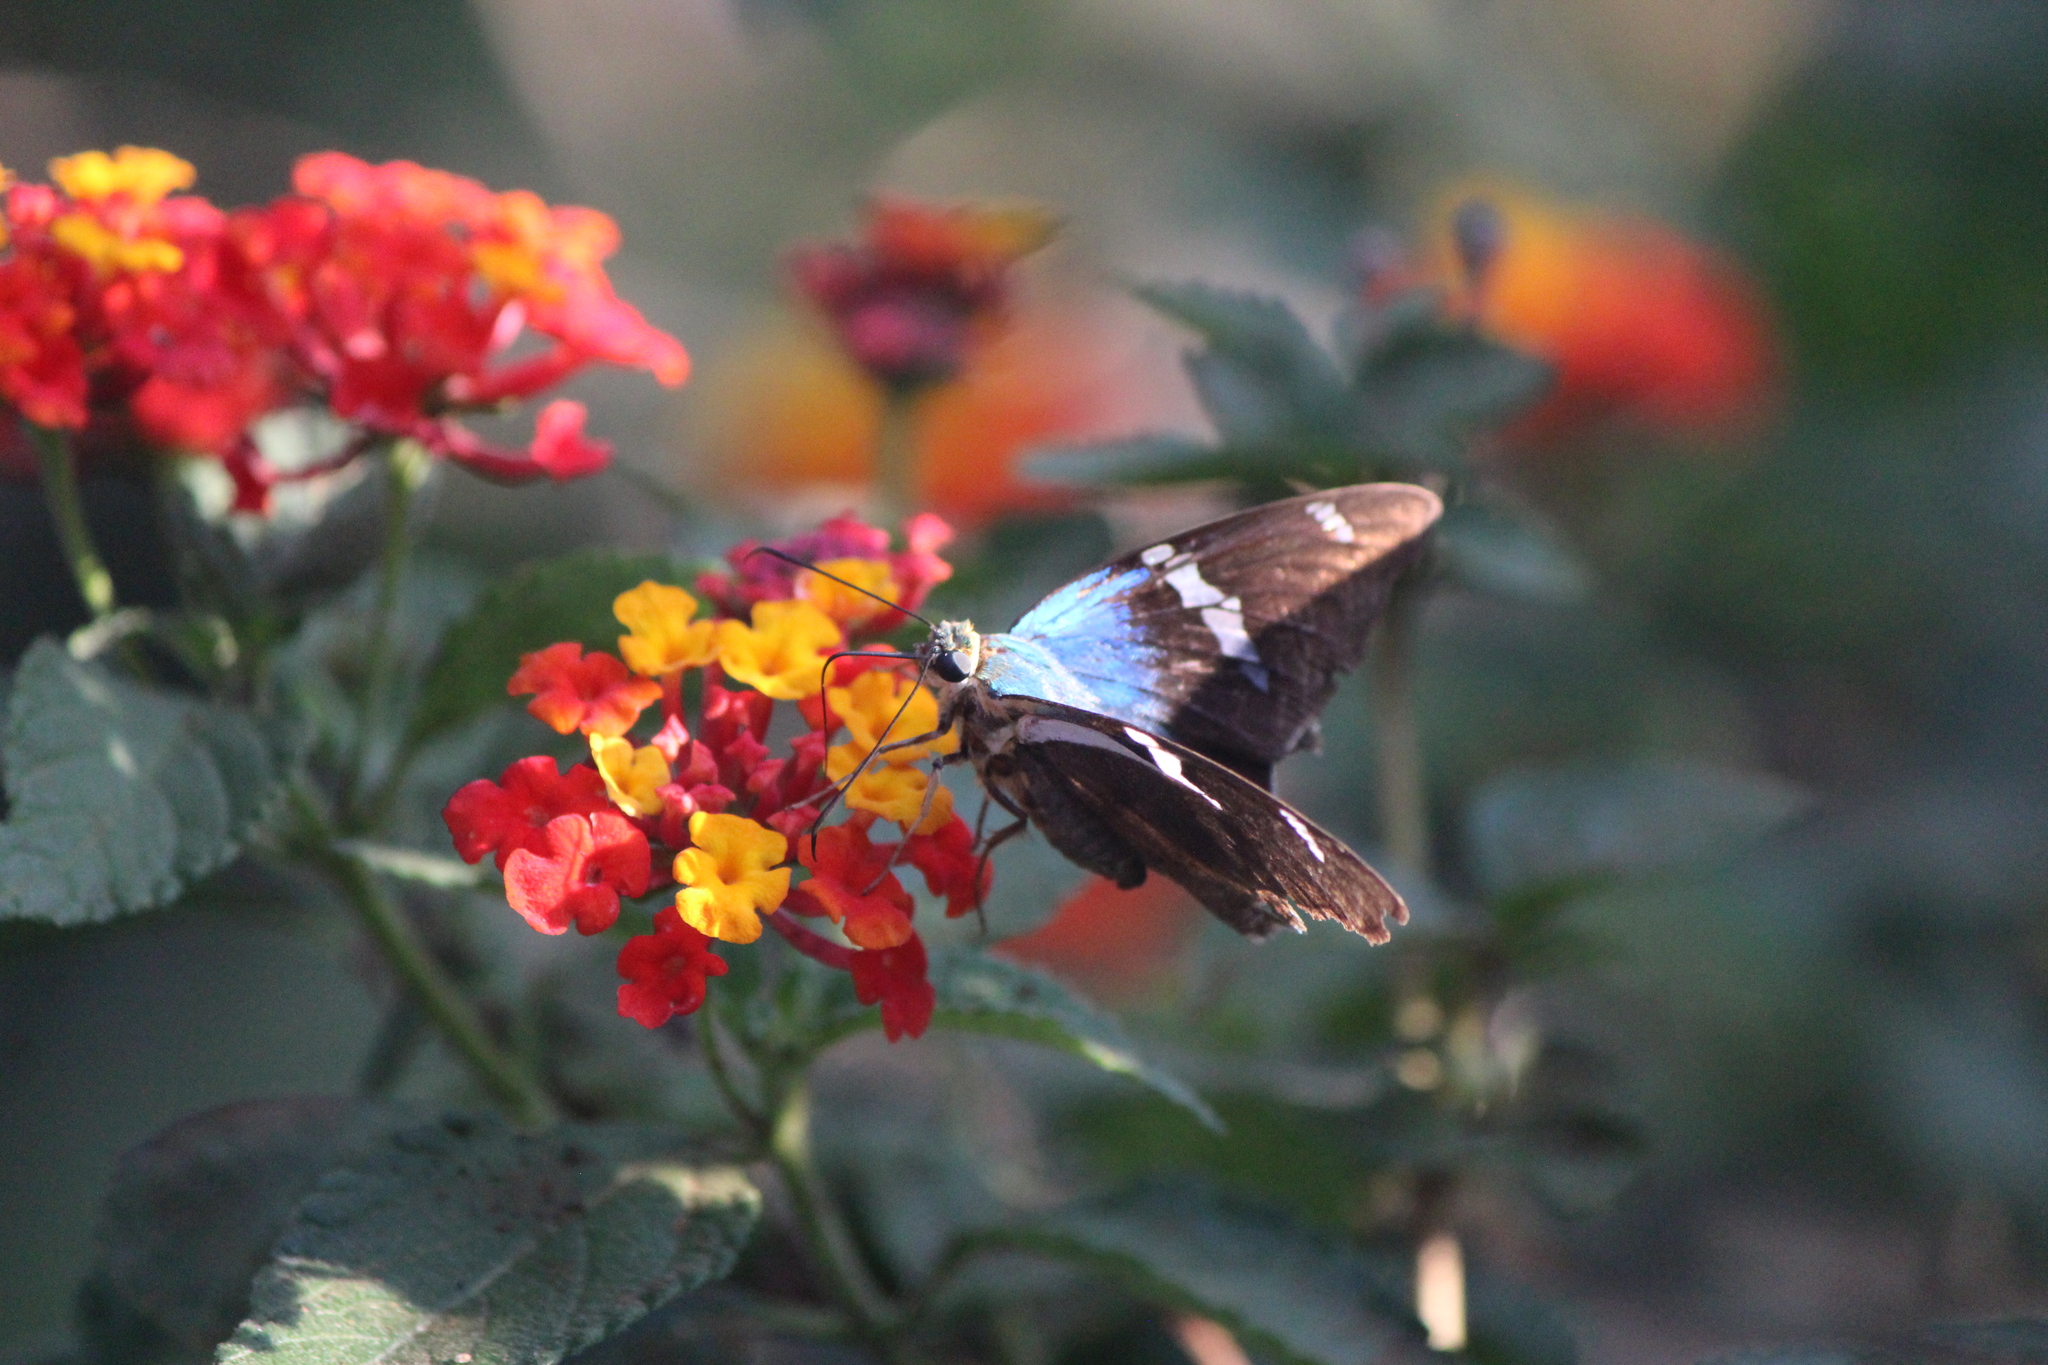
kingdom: Animalia
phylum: Arthropoda
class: Insecta
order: Lepidoptera
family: Hesperiidae
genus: Astraptes
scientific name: Astraptes fulgerator
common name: Two-barred flasher
